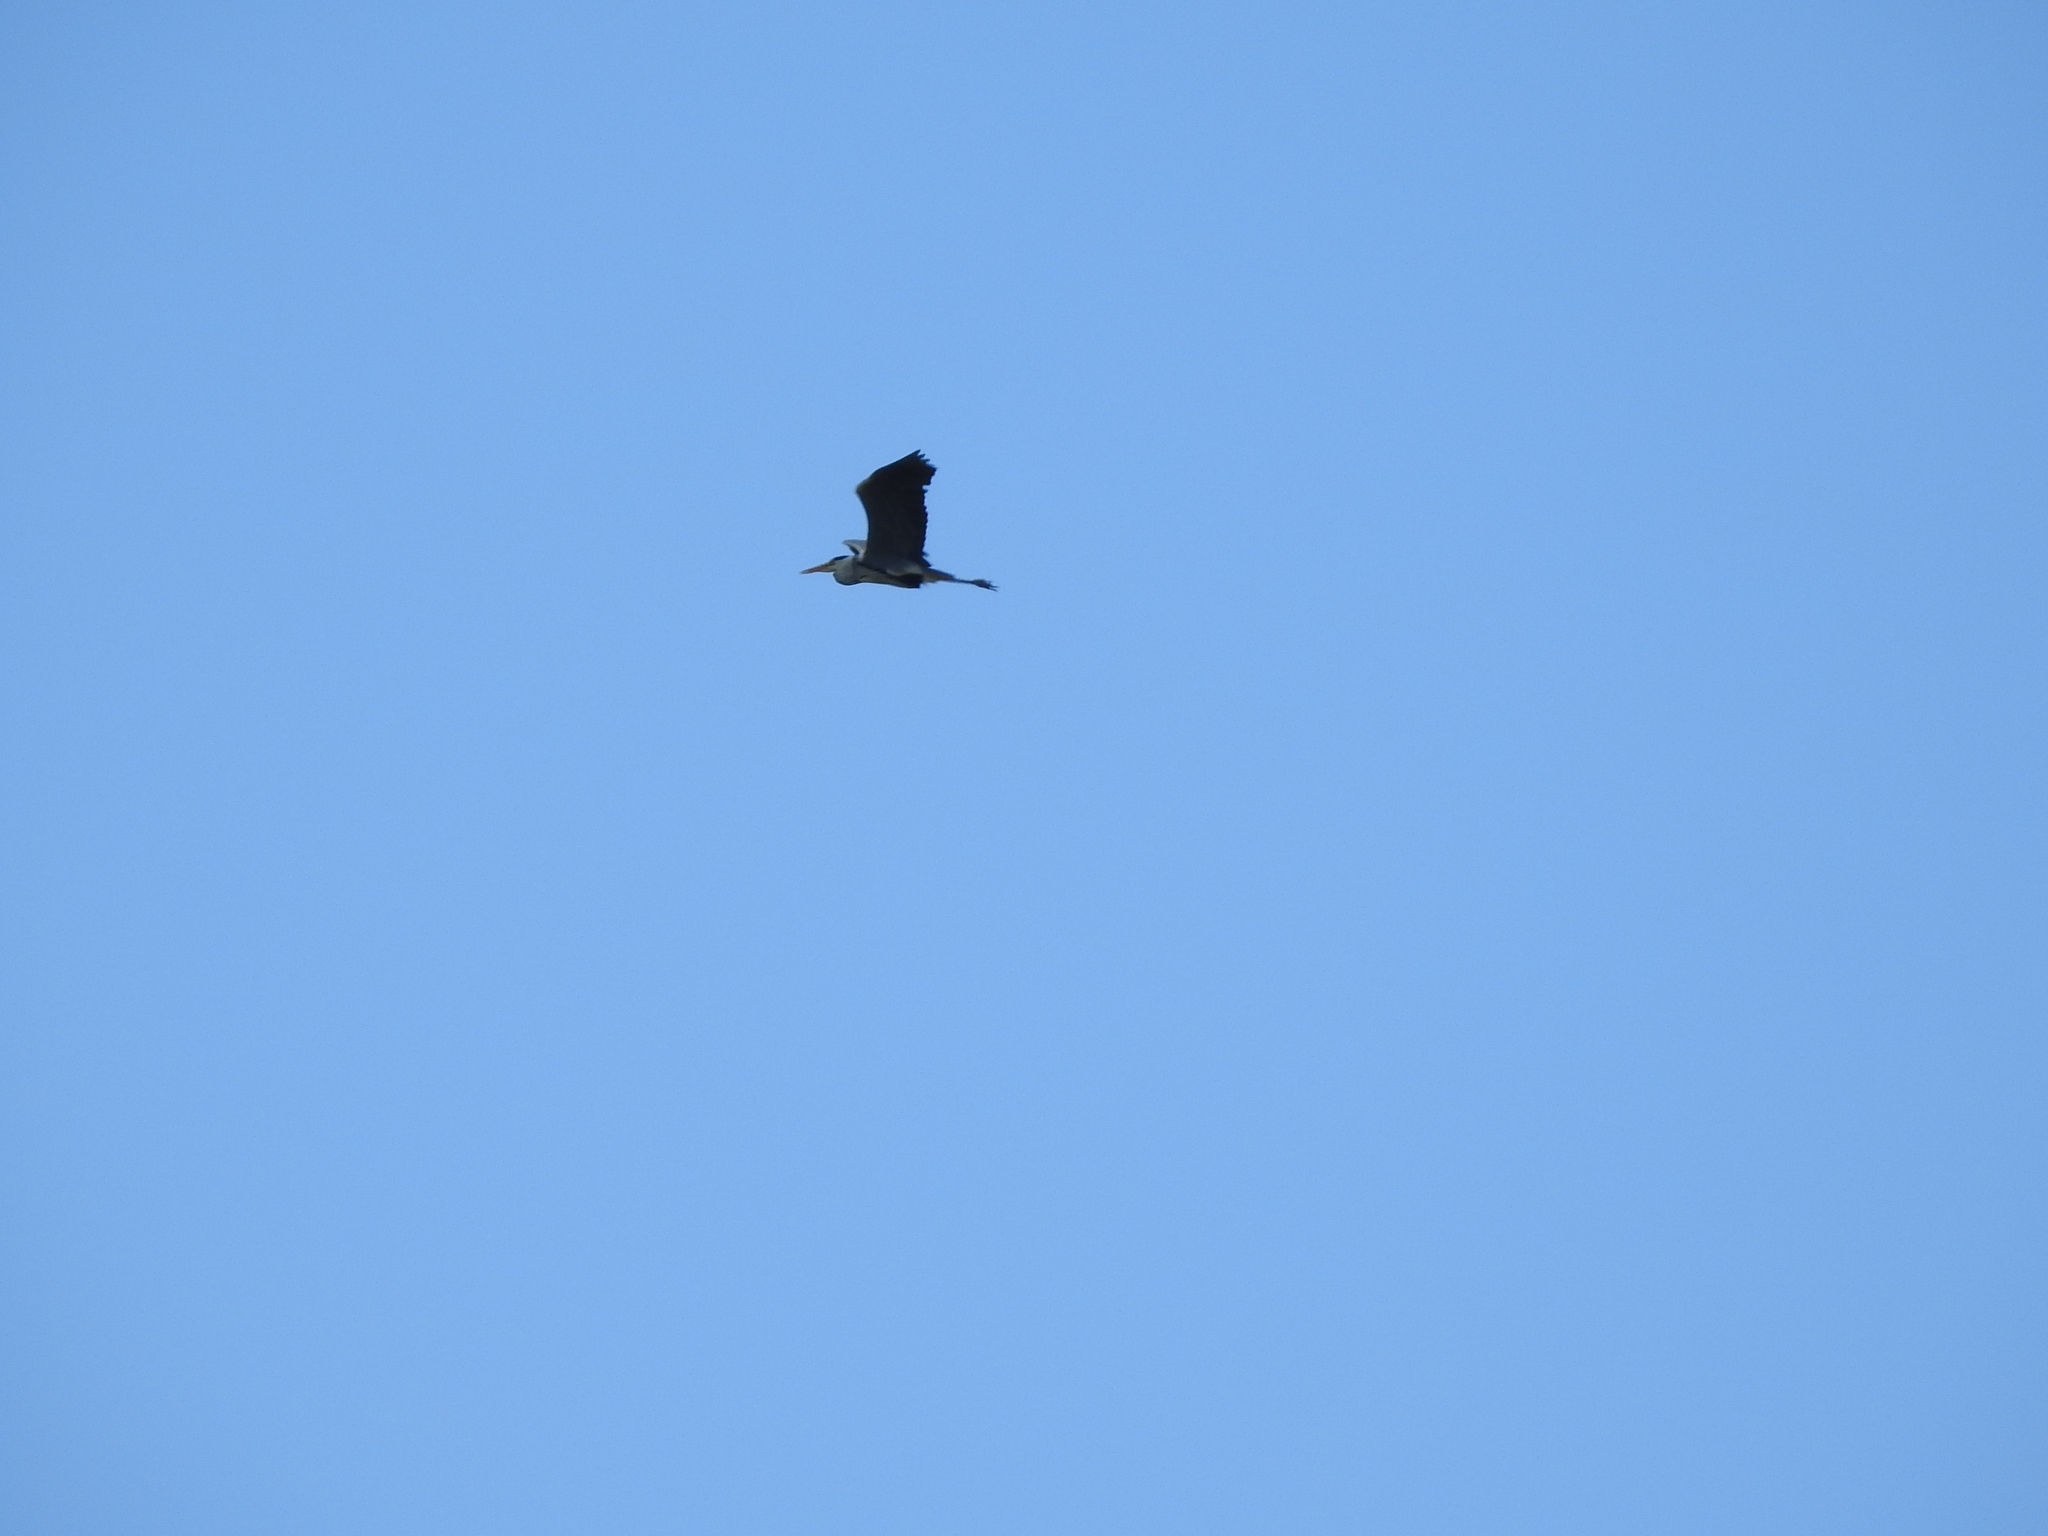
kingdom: Animalia
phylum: Chordata
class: Aves
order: Pelecaniformes
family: Ardeidae
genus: Ardea
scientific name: Ardea cinerea
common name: Grey heron
